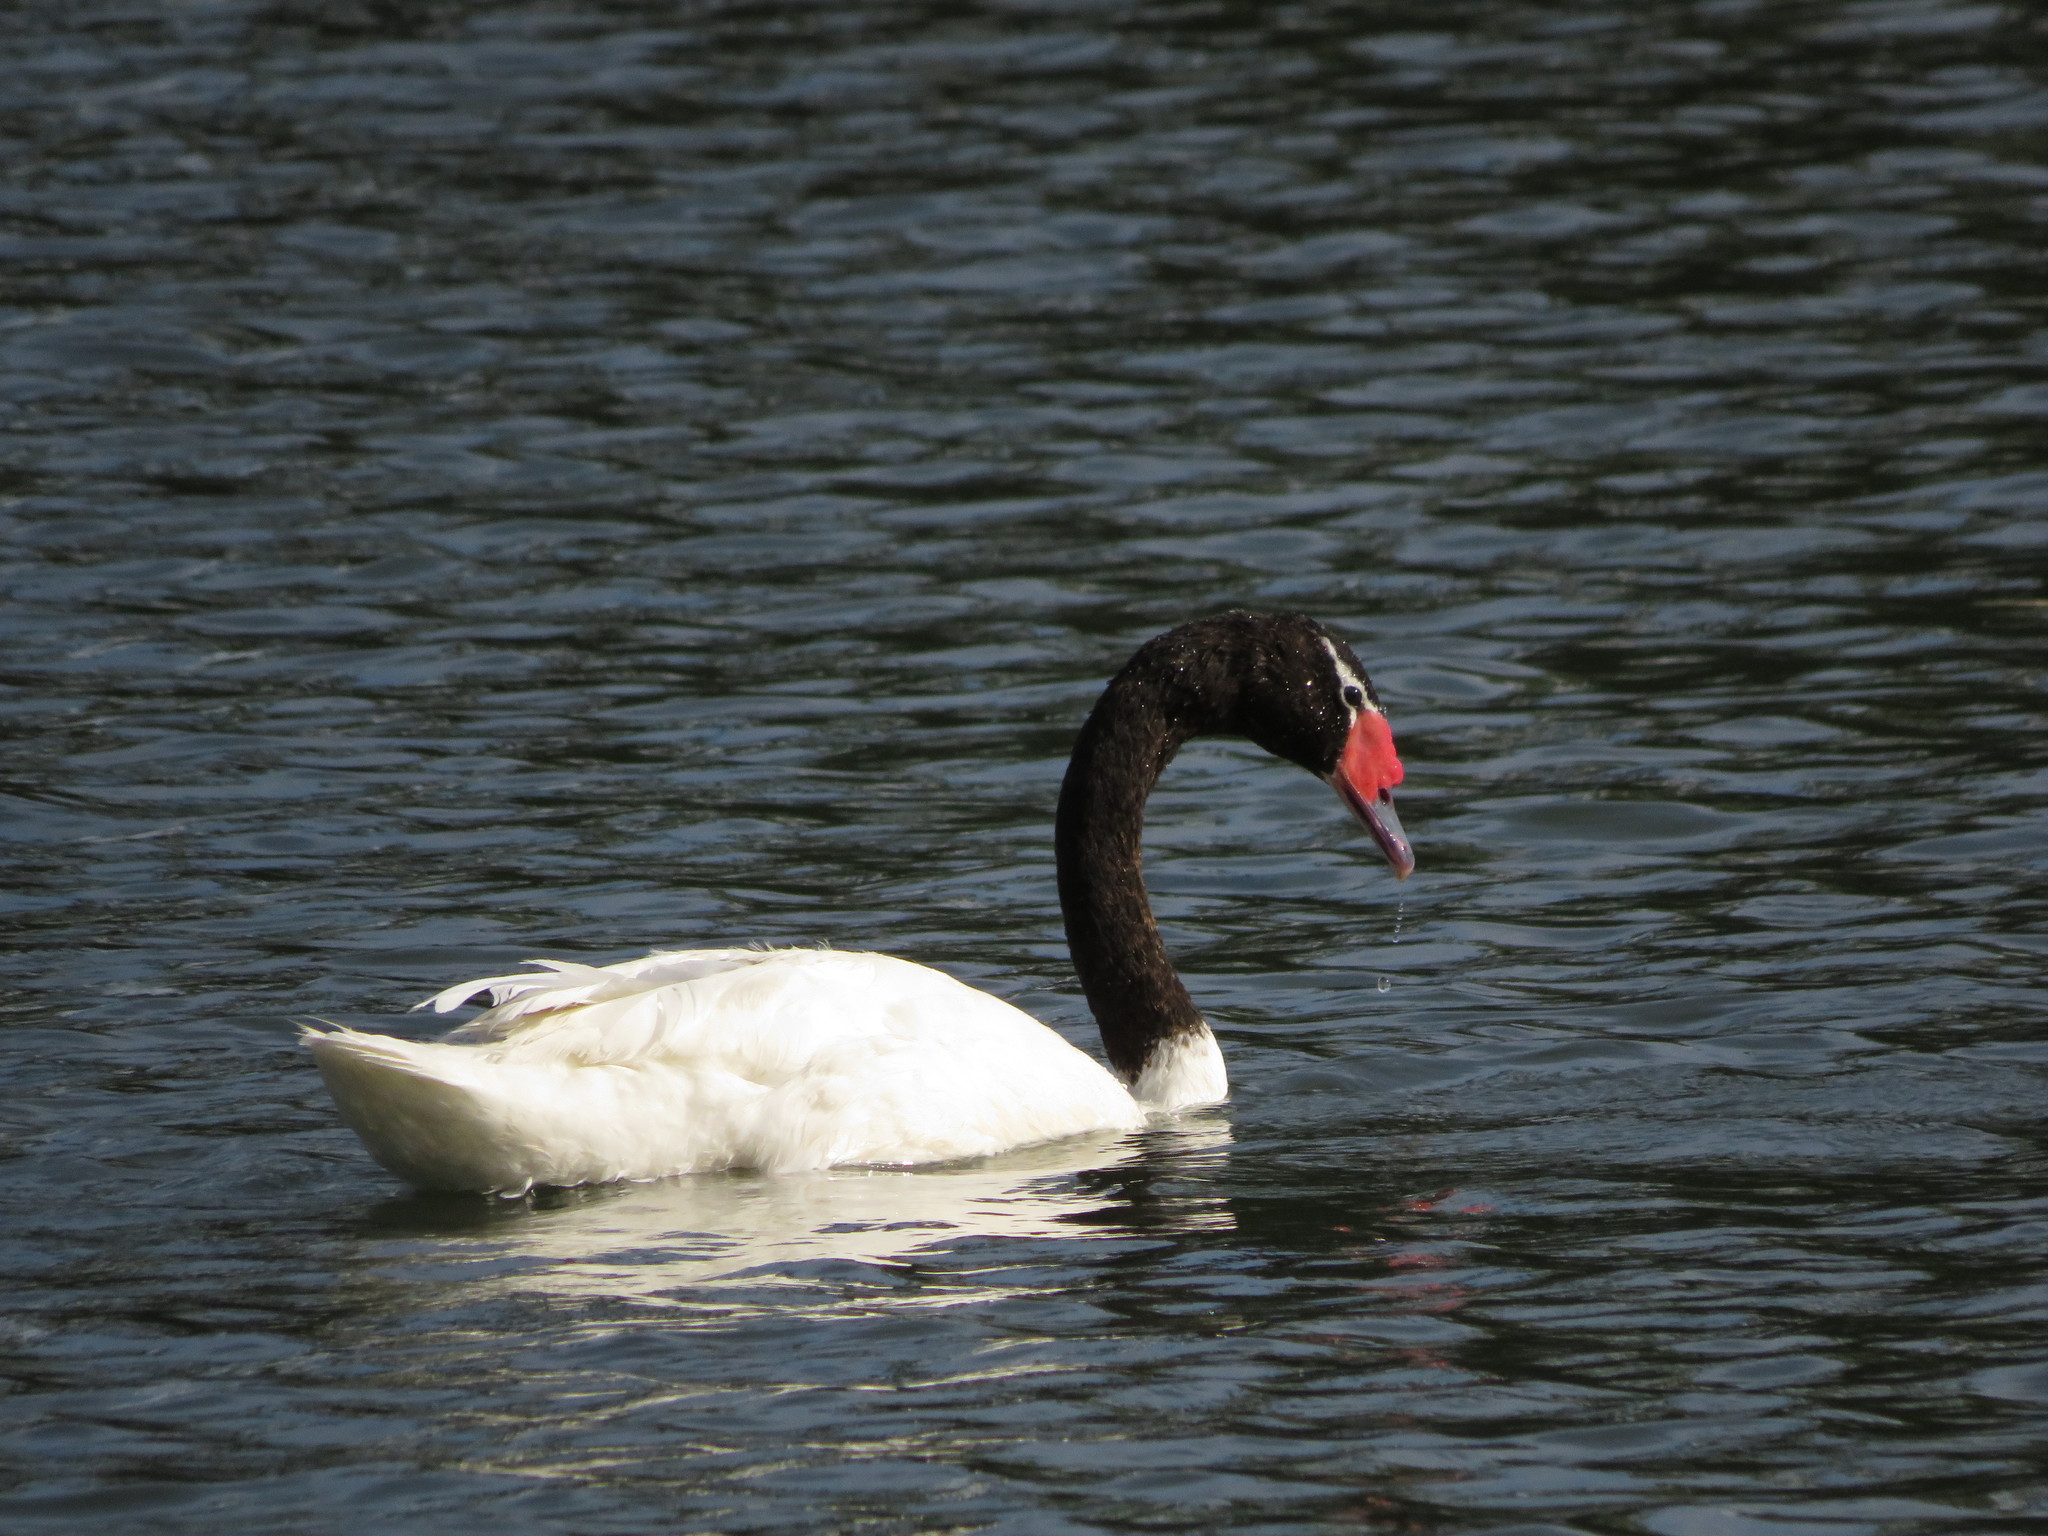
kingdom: Animalia
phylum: Chordata
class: Aves
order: Anseriformes
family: Anatidae
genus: Cygnus
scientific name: Cygnus melancoryphus
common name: Black-necked swan
